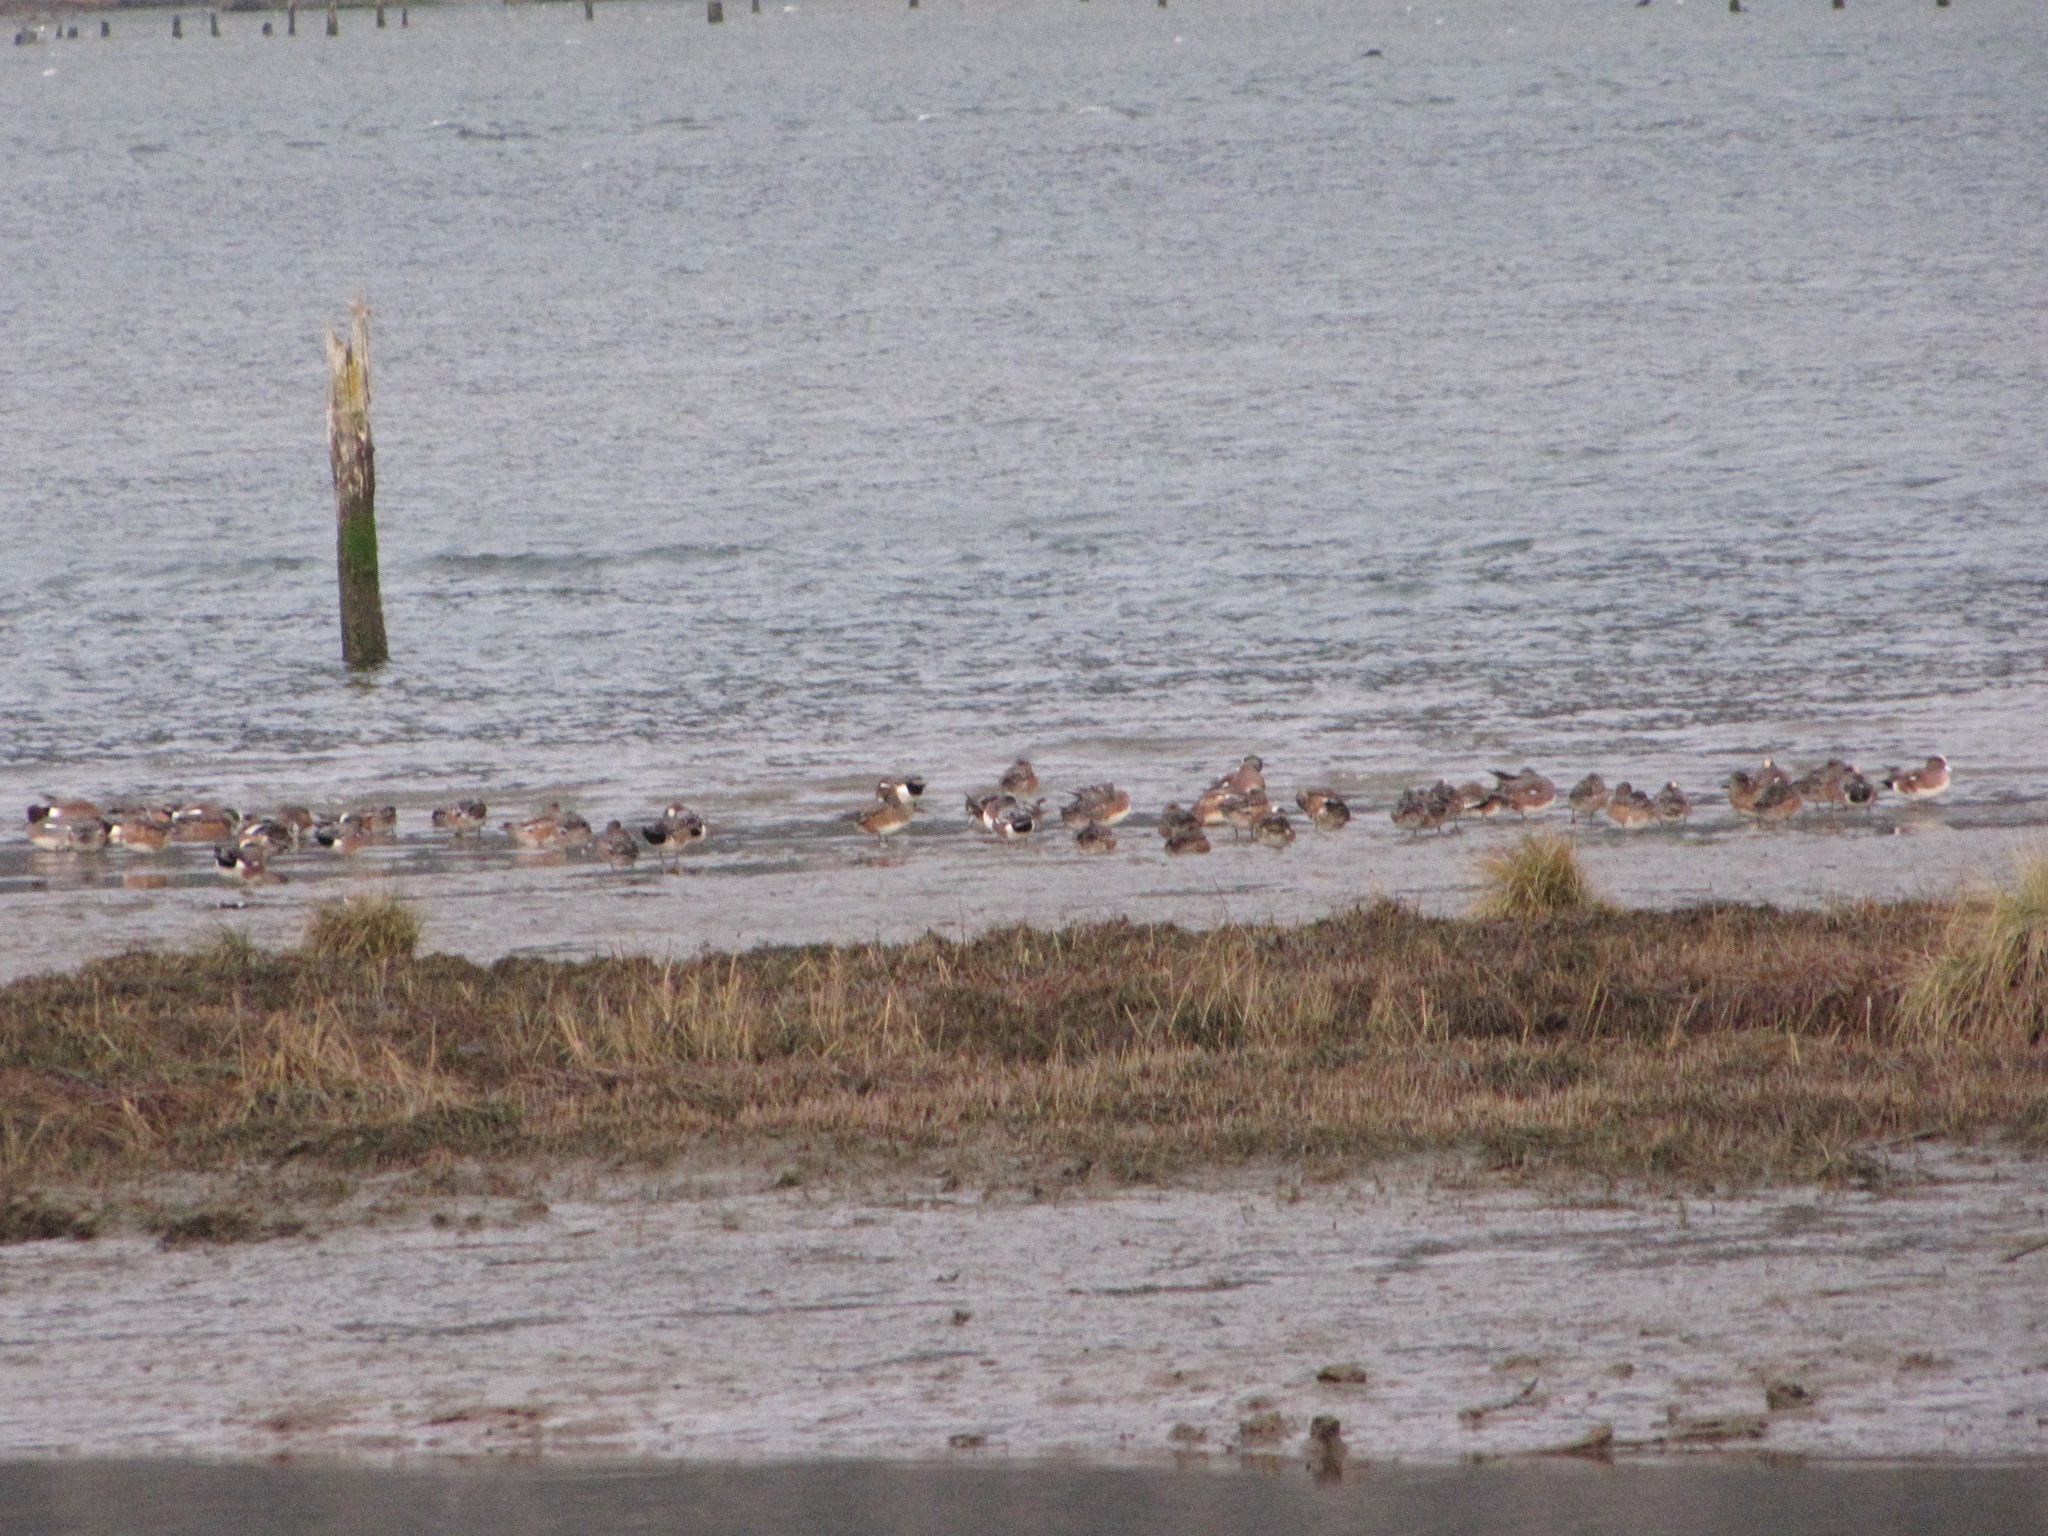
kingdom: Animalia
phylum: Chordata
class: Aves
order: Anseriformes
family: Anatidae
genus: Mareca
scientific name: Mareca americana
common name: American wigeon
